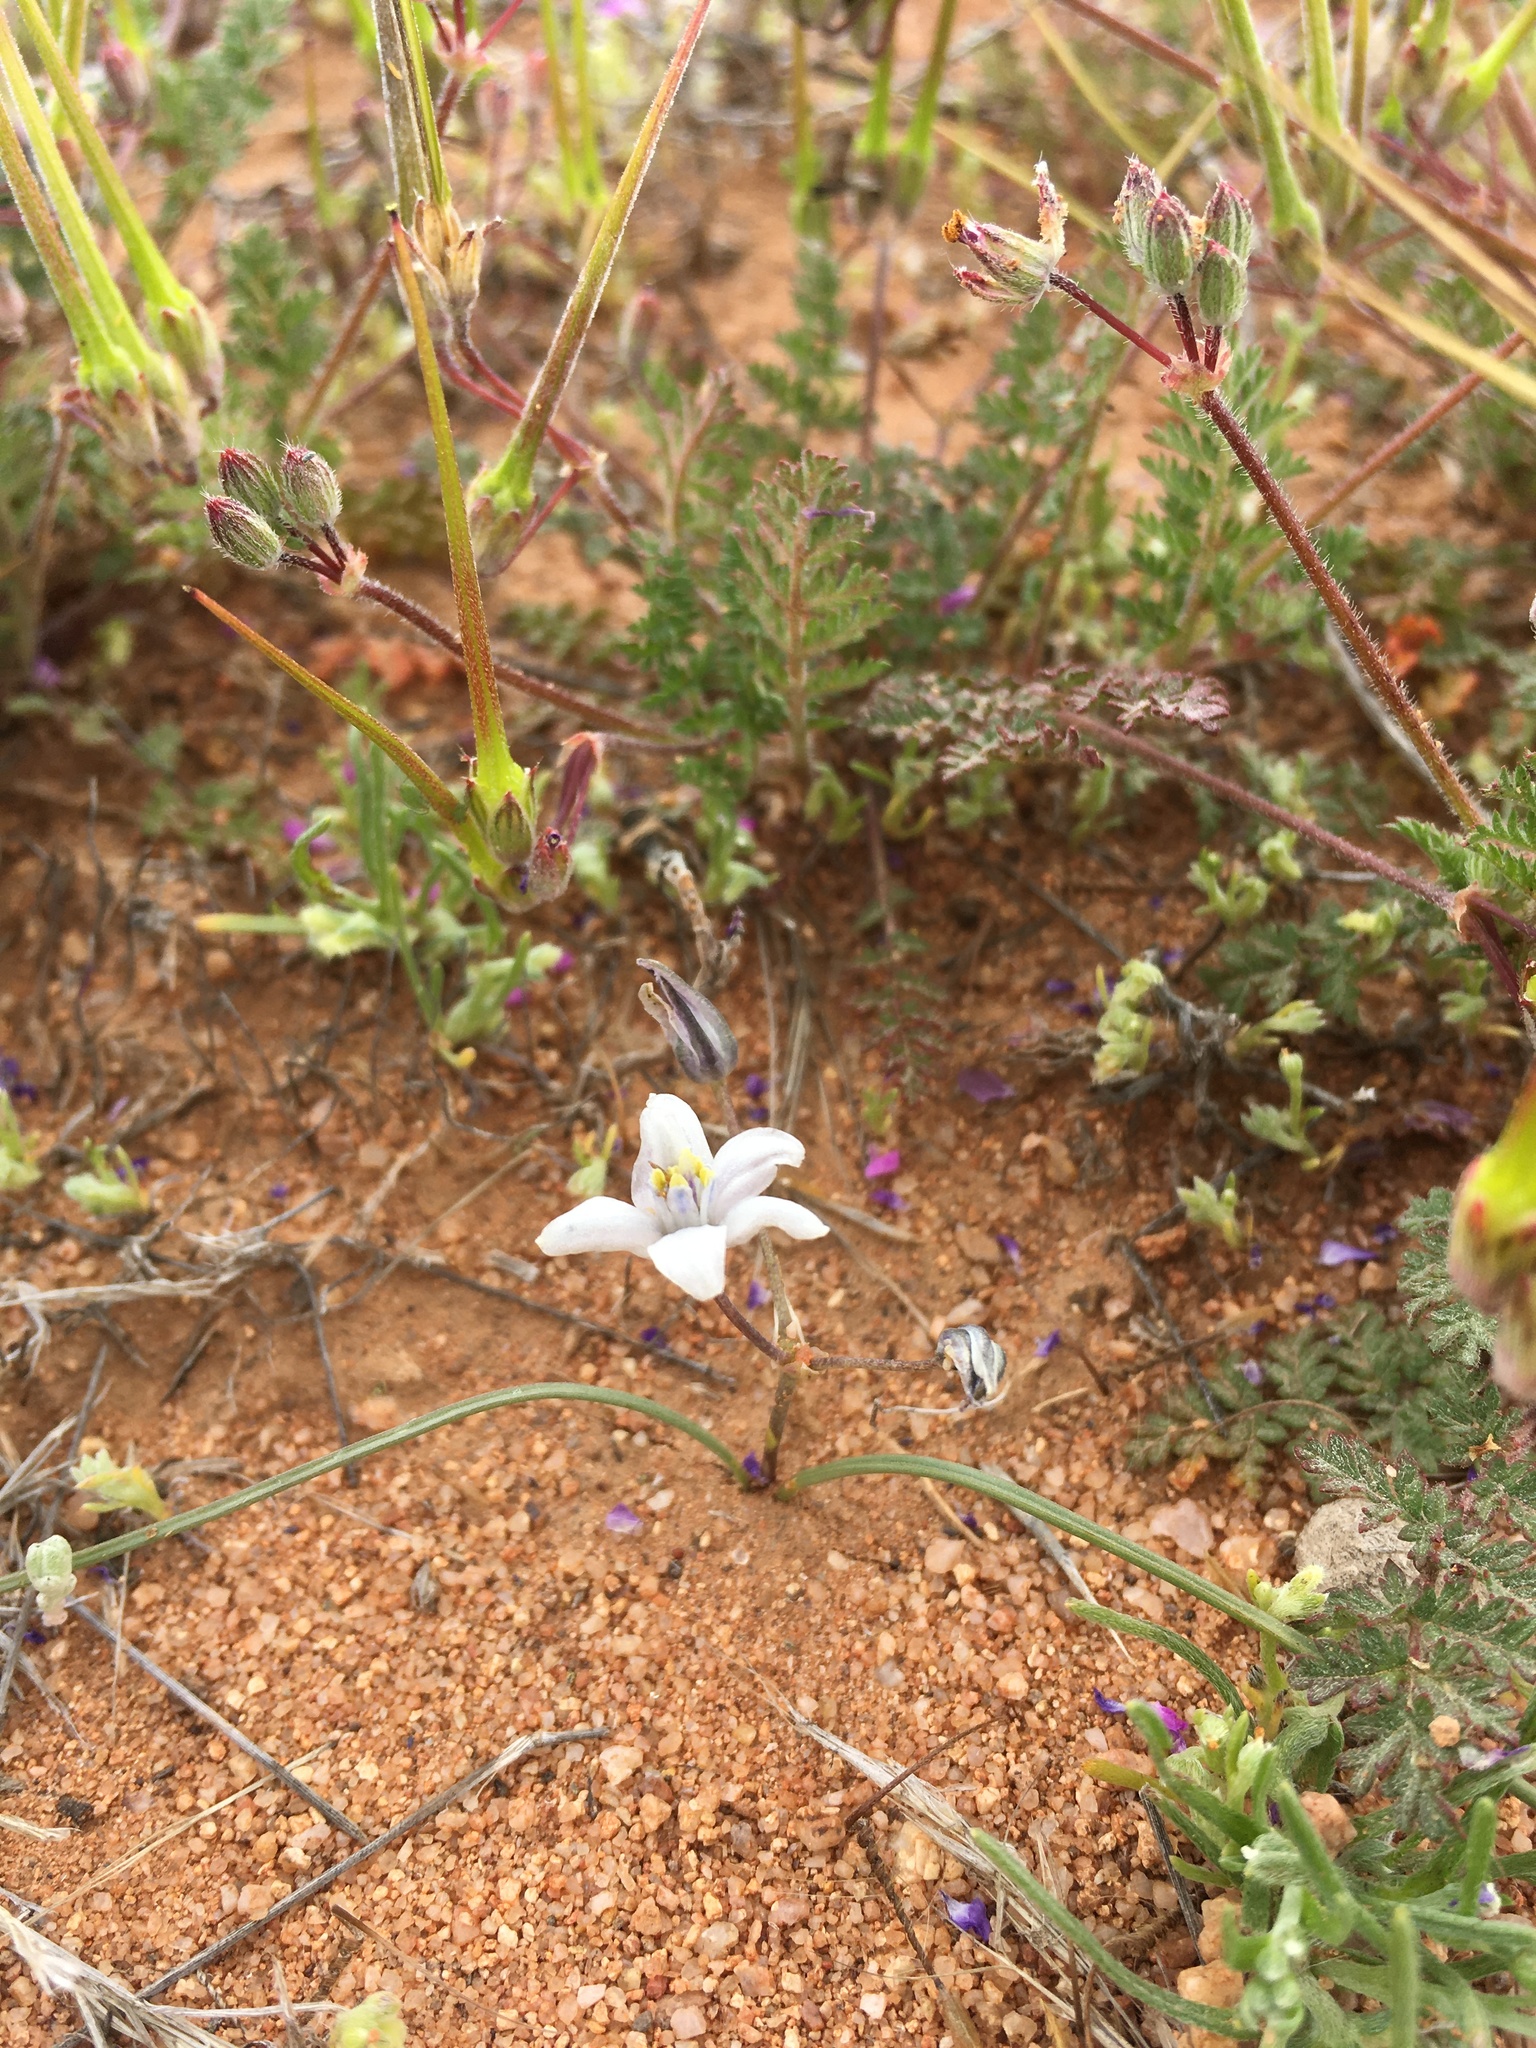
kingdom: Plantae
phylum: Tracheophyta
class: Liliopsida
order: Asparagales
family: Asparagaceae
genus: Muilla
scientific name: Muilla lordsburgana
